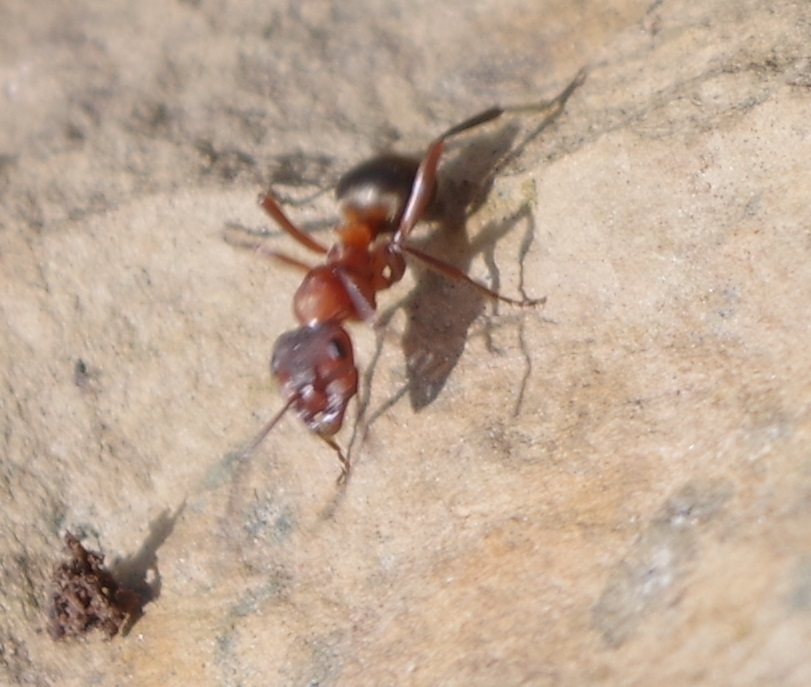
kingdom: Animalia
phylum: Arthropoda
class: Insecta
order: Hymenoptera
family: Formicidae
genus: Formica
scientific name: Formica sanguinea
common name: Blood-red ant
